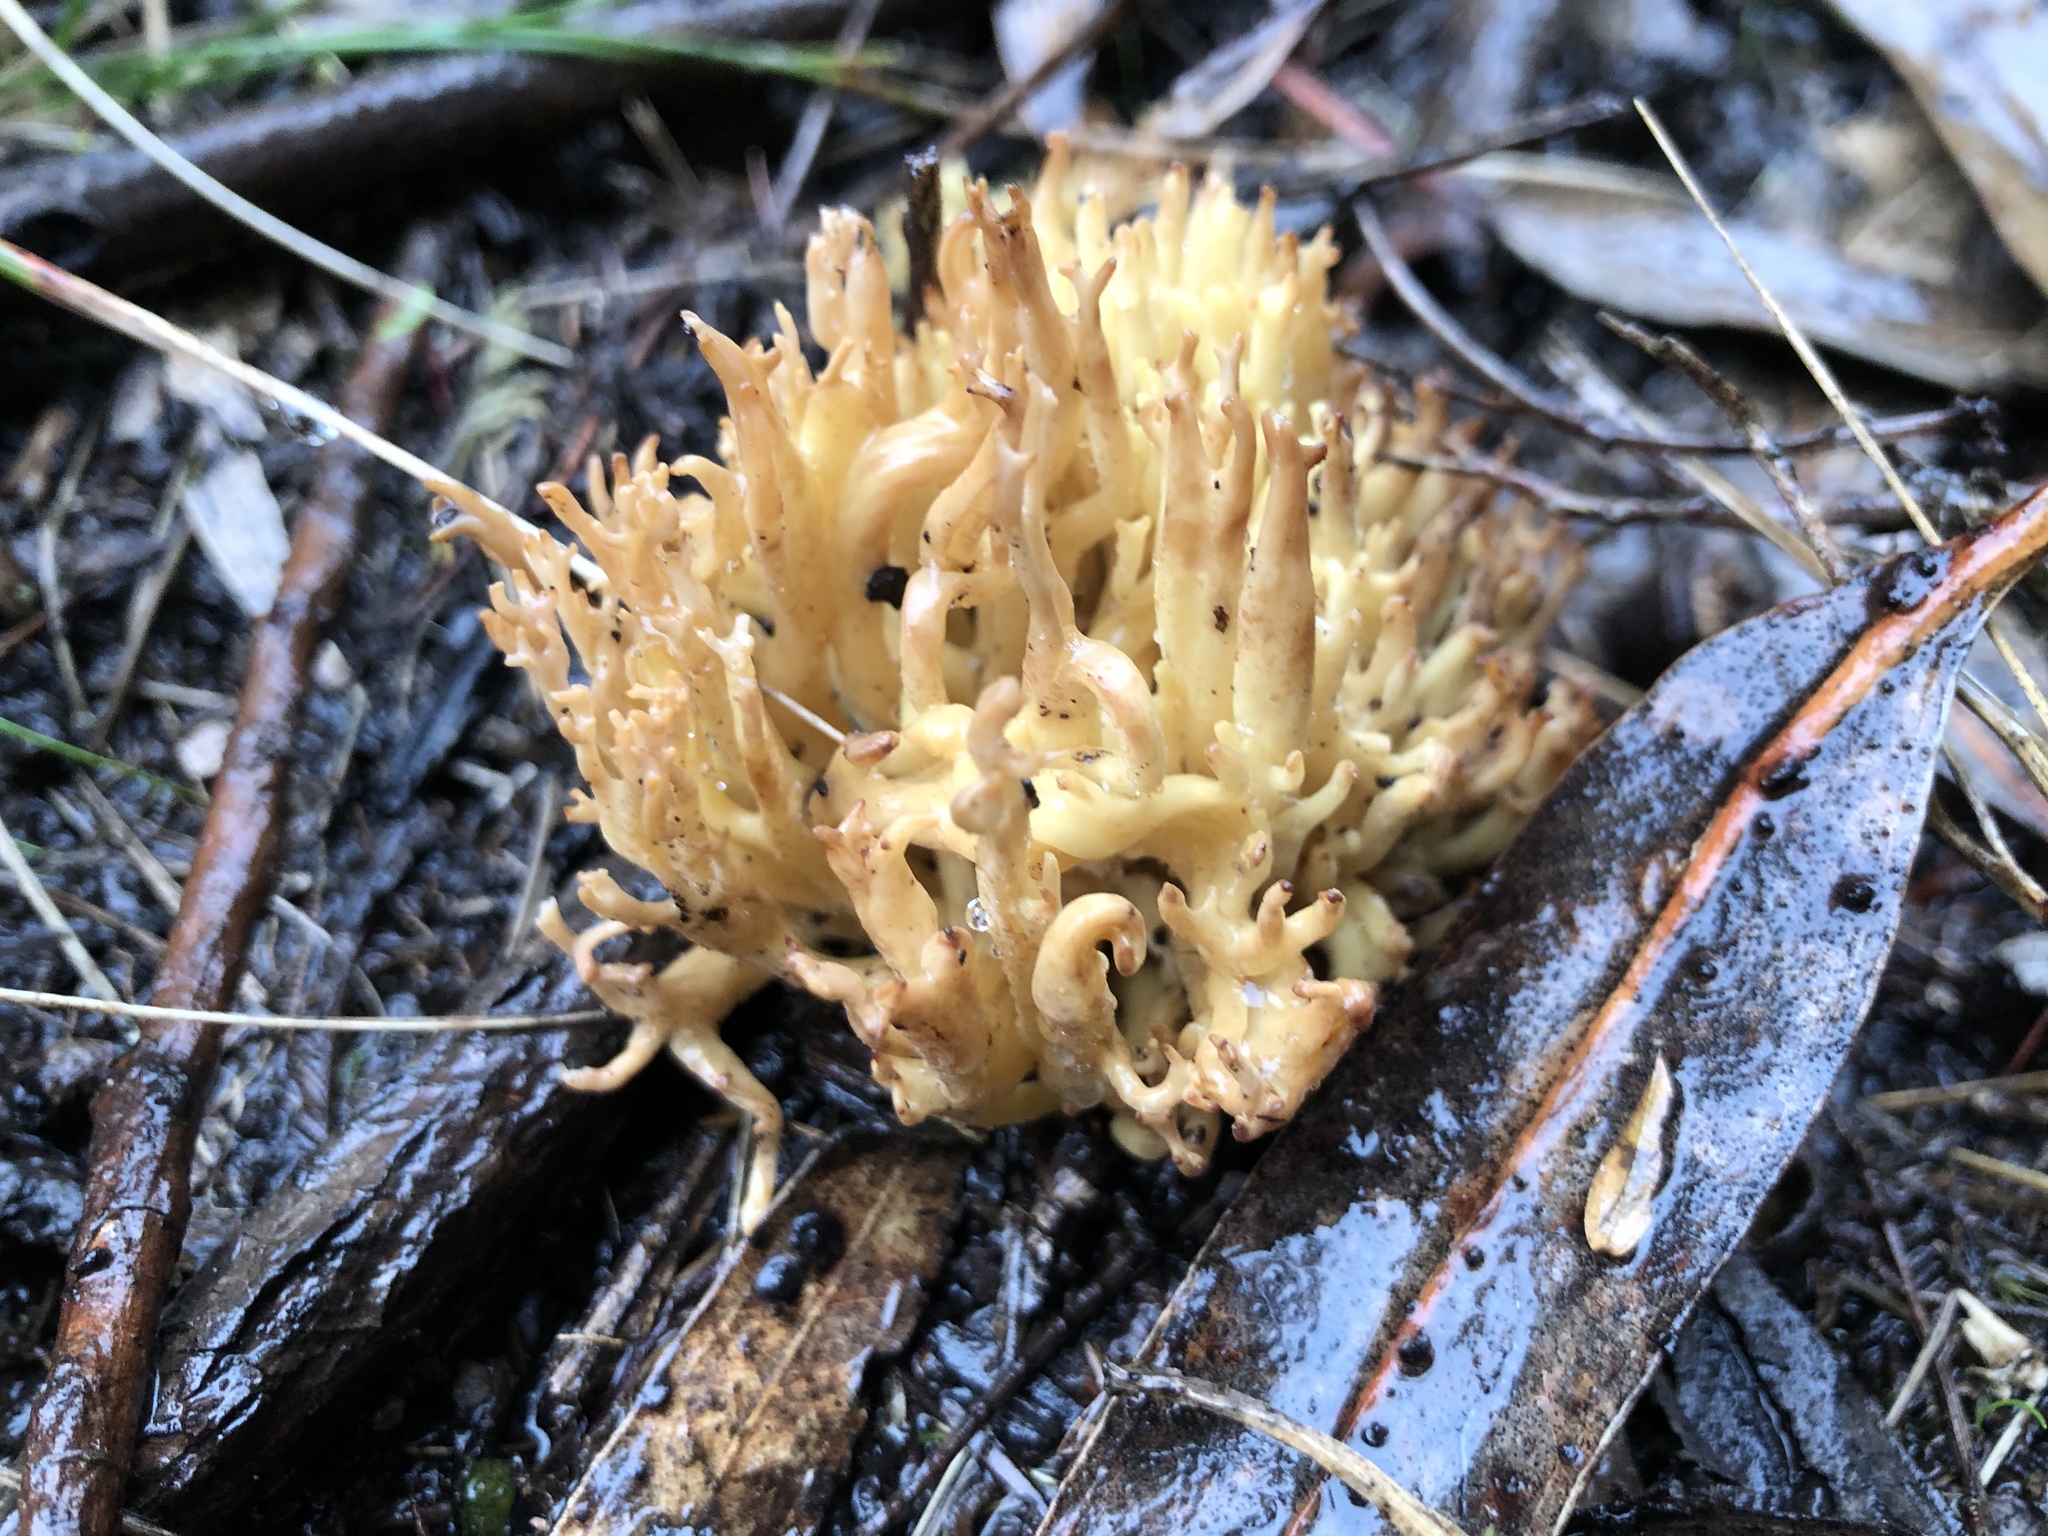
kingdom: Fungi
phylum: Basidiomycota
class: Agaricomycetes
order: Gomphales
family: Gomphaceae
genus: Ramaria
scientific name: Ramaria lorithamnus
